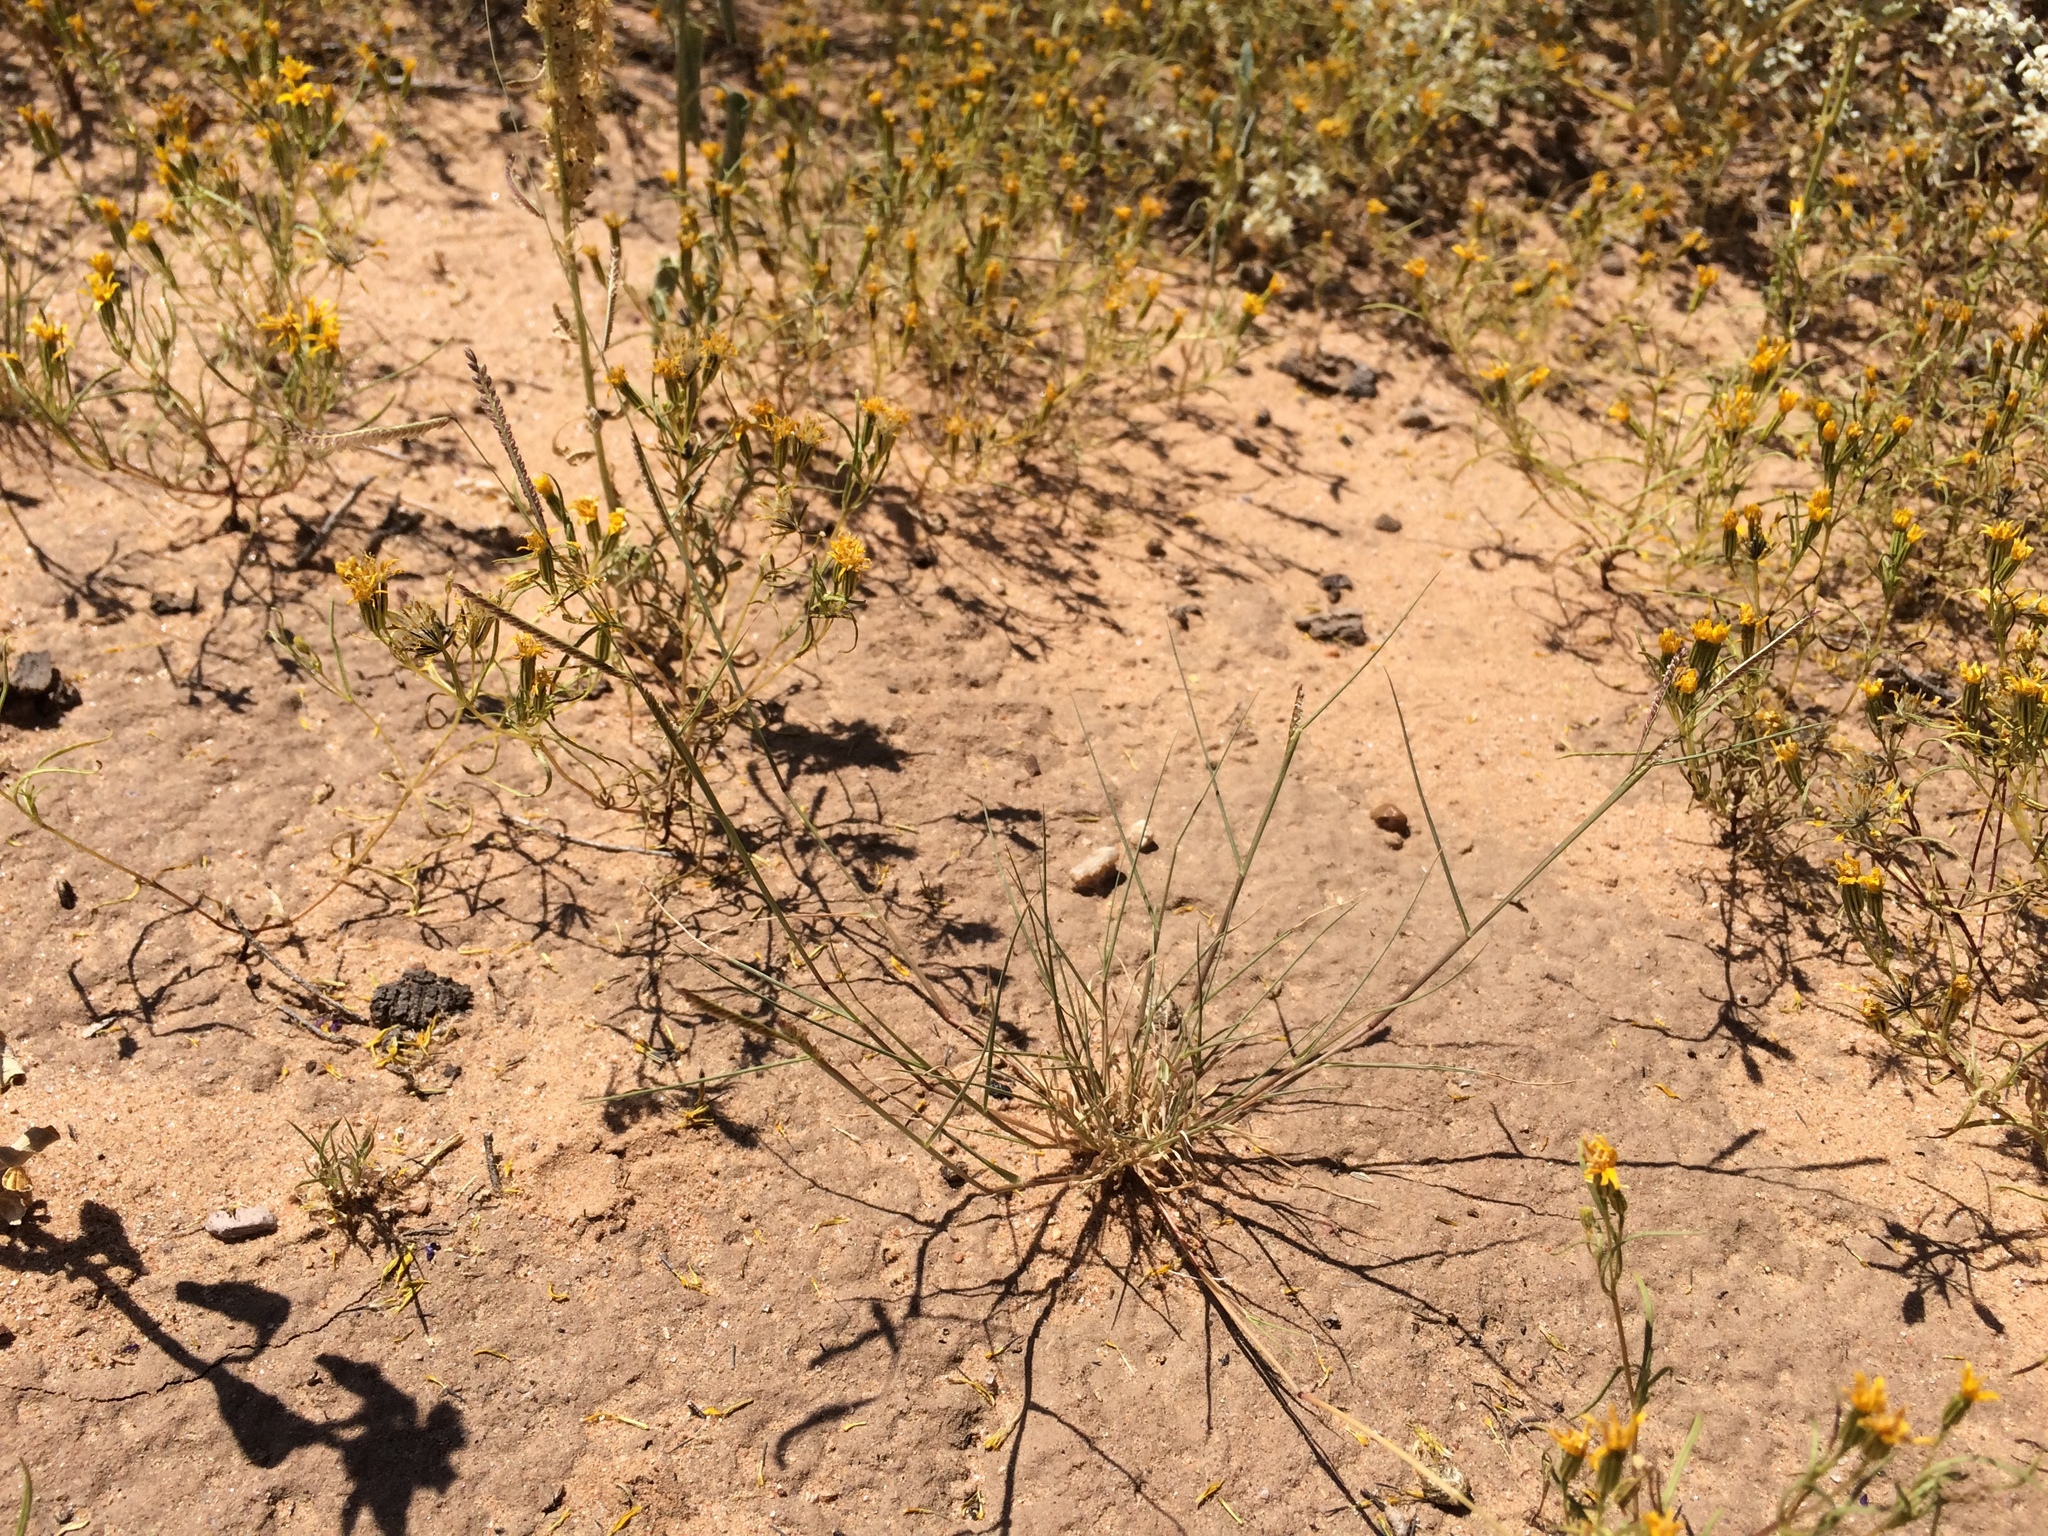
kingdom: Plantae
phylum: Tracheophyta
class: Liliopsida
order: Poales
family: Poaceae
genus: Bouteloua
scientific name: Bouteloua barbata
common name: Six-weeks grama
